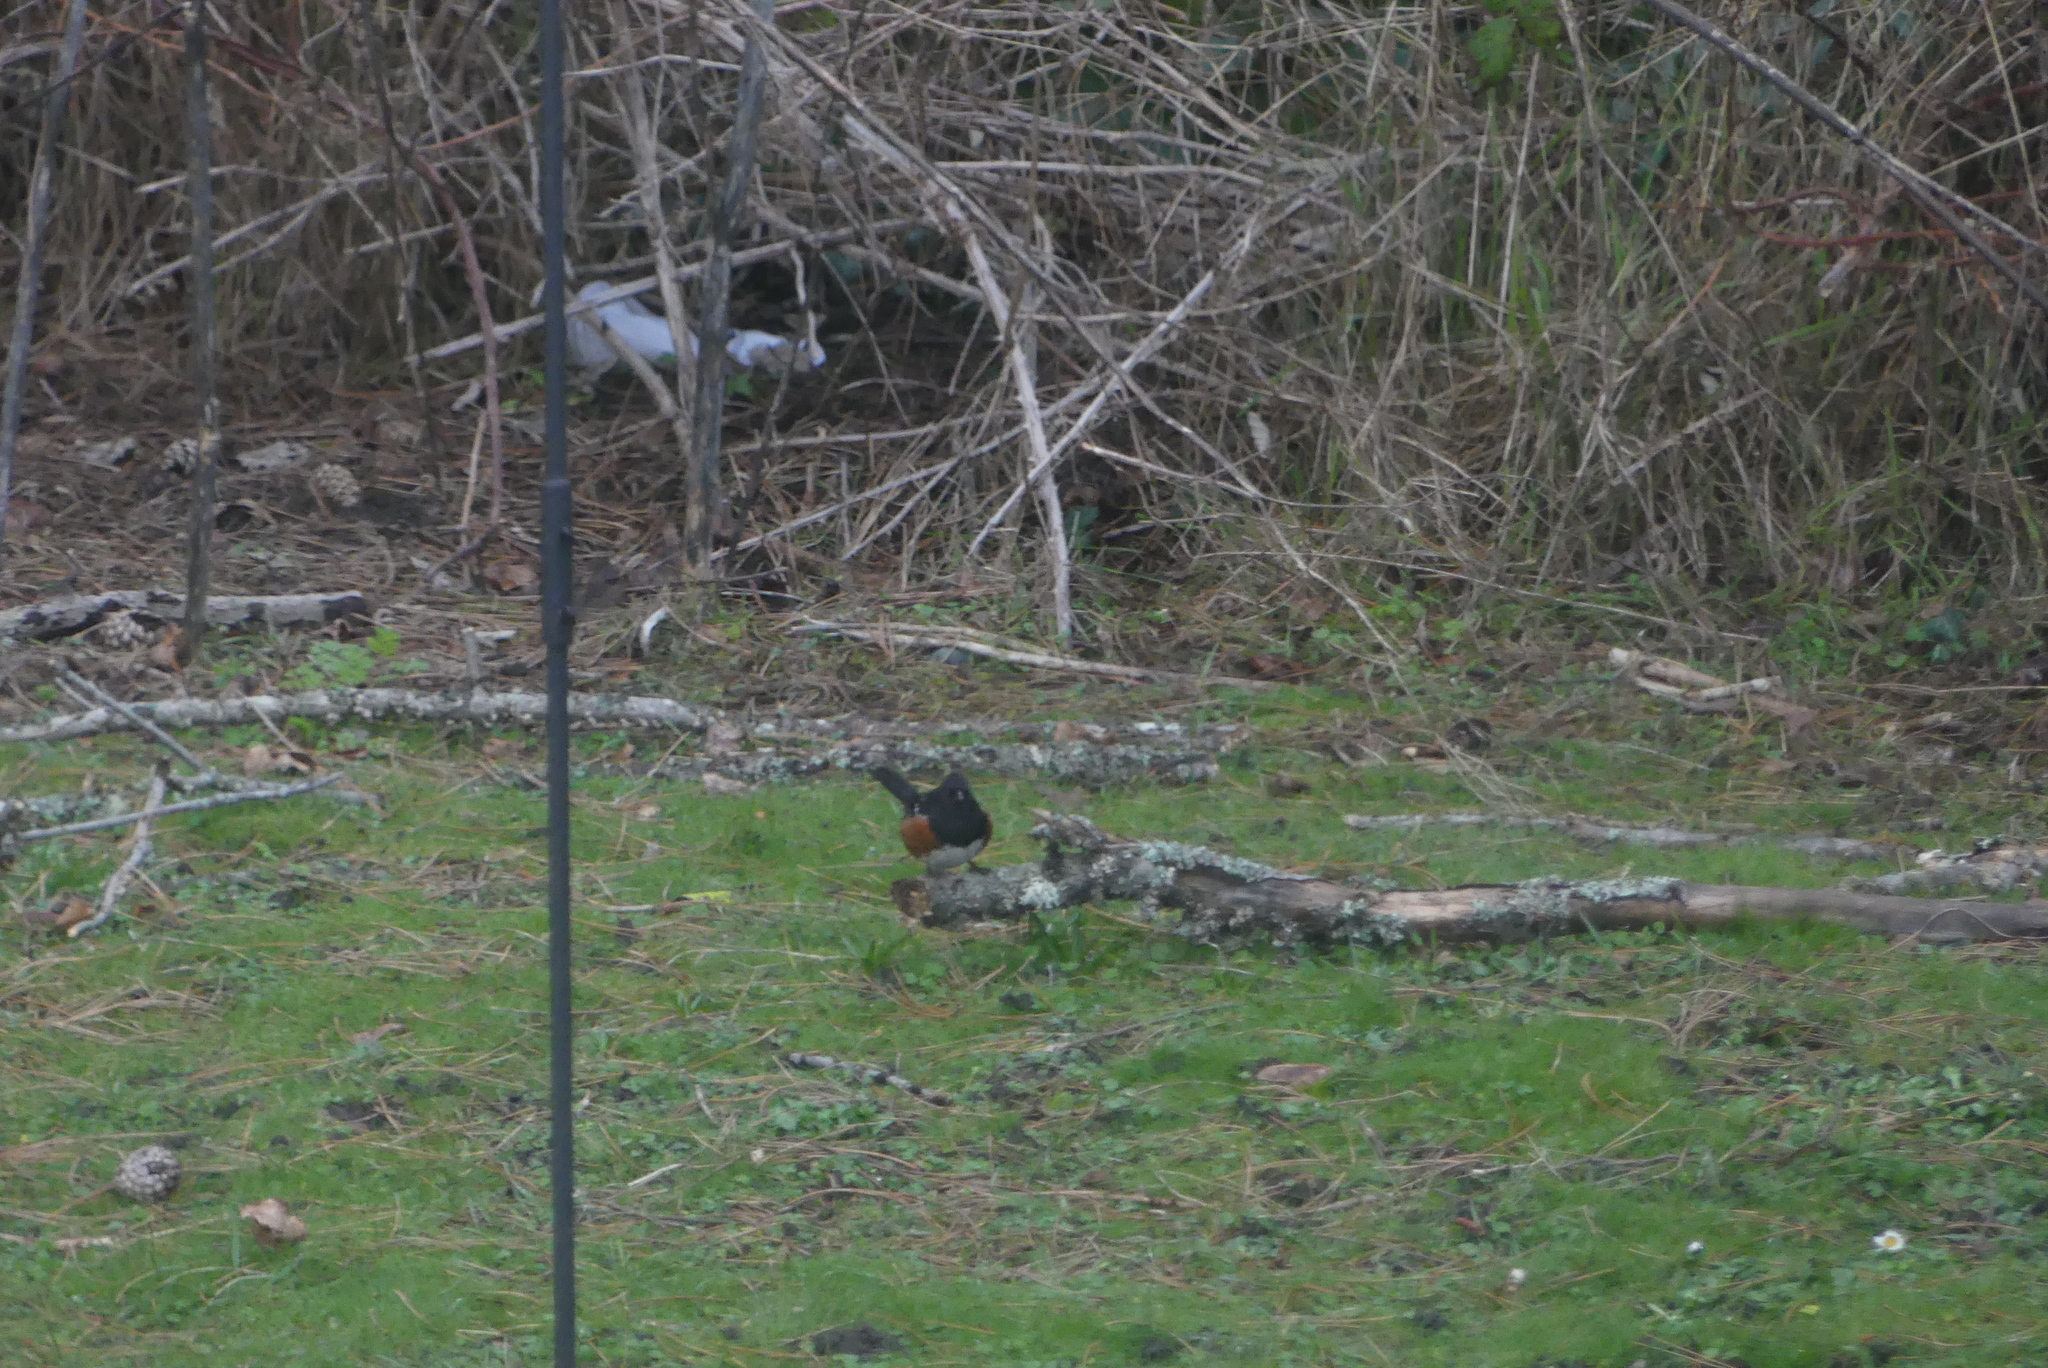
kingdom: Animalia
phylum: Chordata
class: Aves
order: Passeriformes
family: Passerellidae
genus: Pipilo
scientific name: Pipilo maculatus
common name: Spotted towhee
